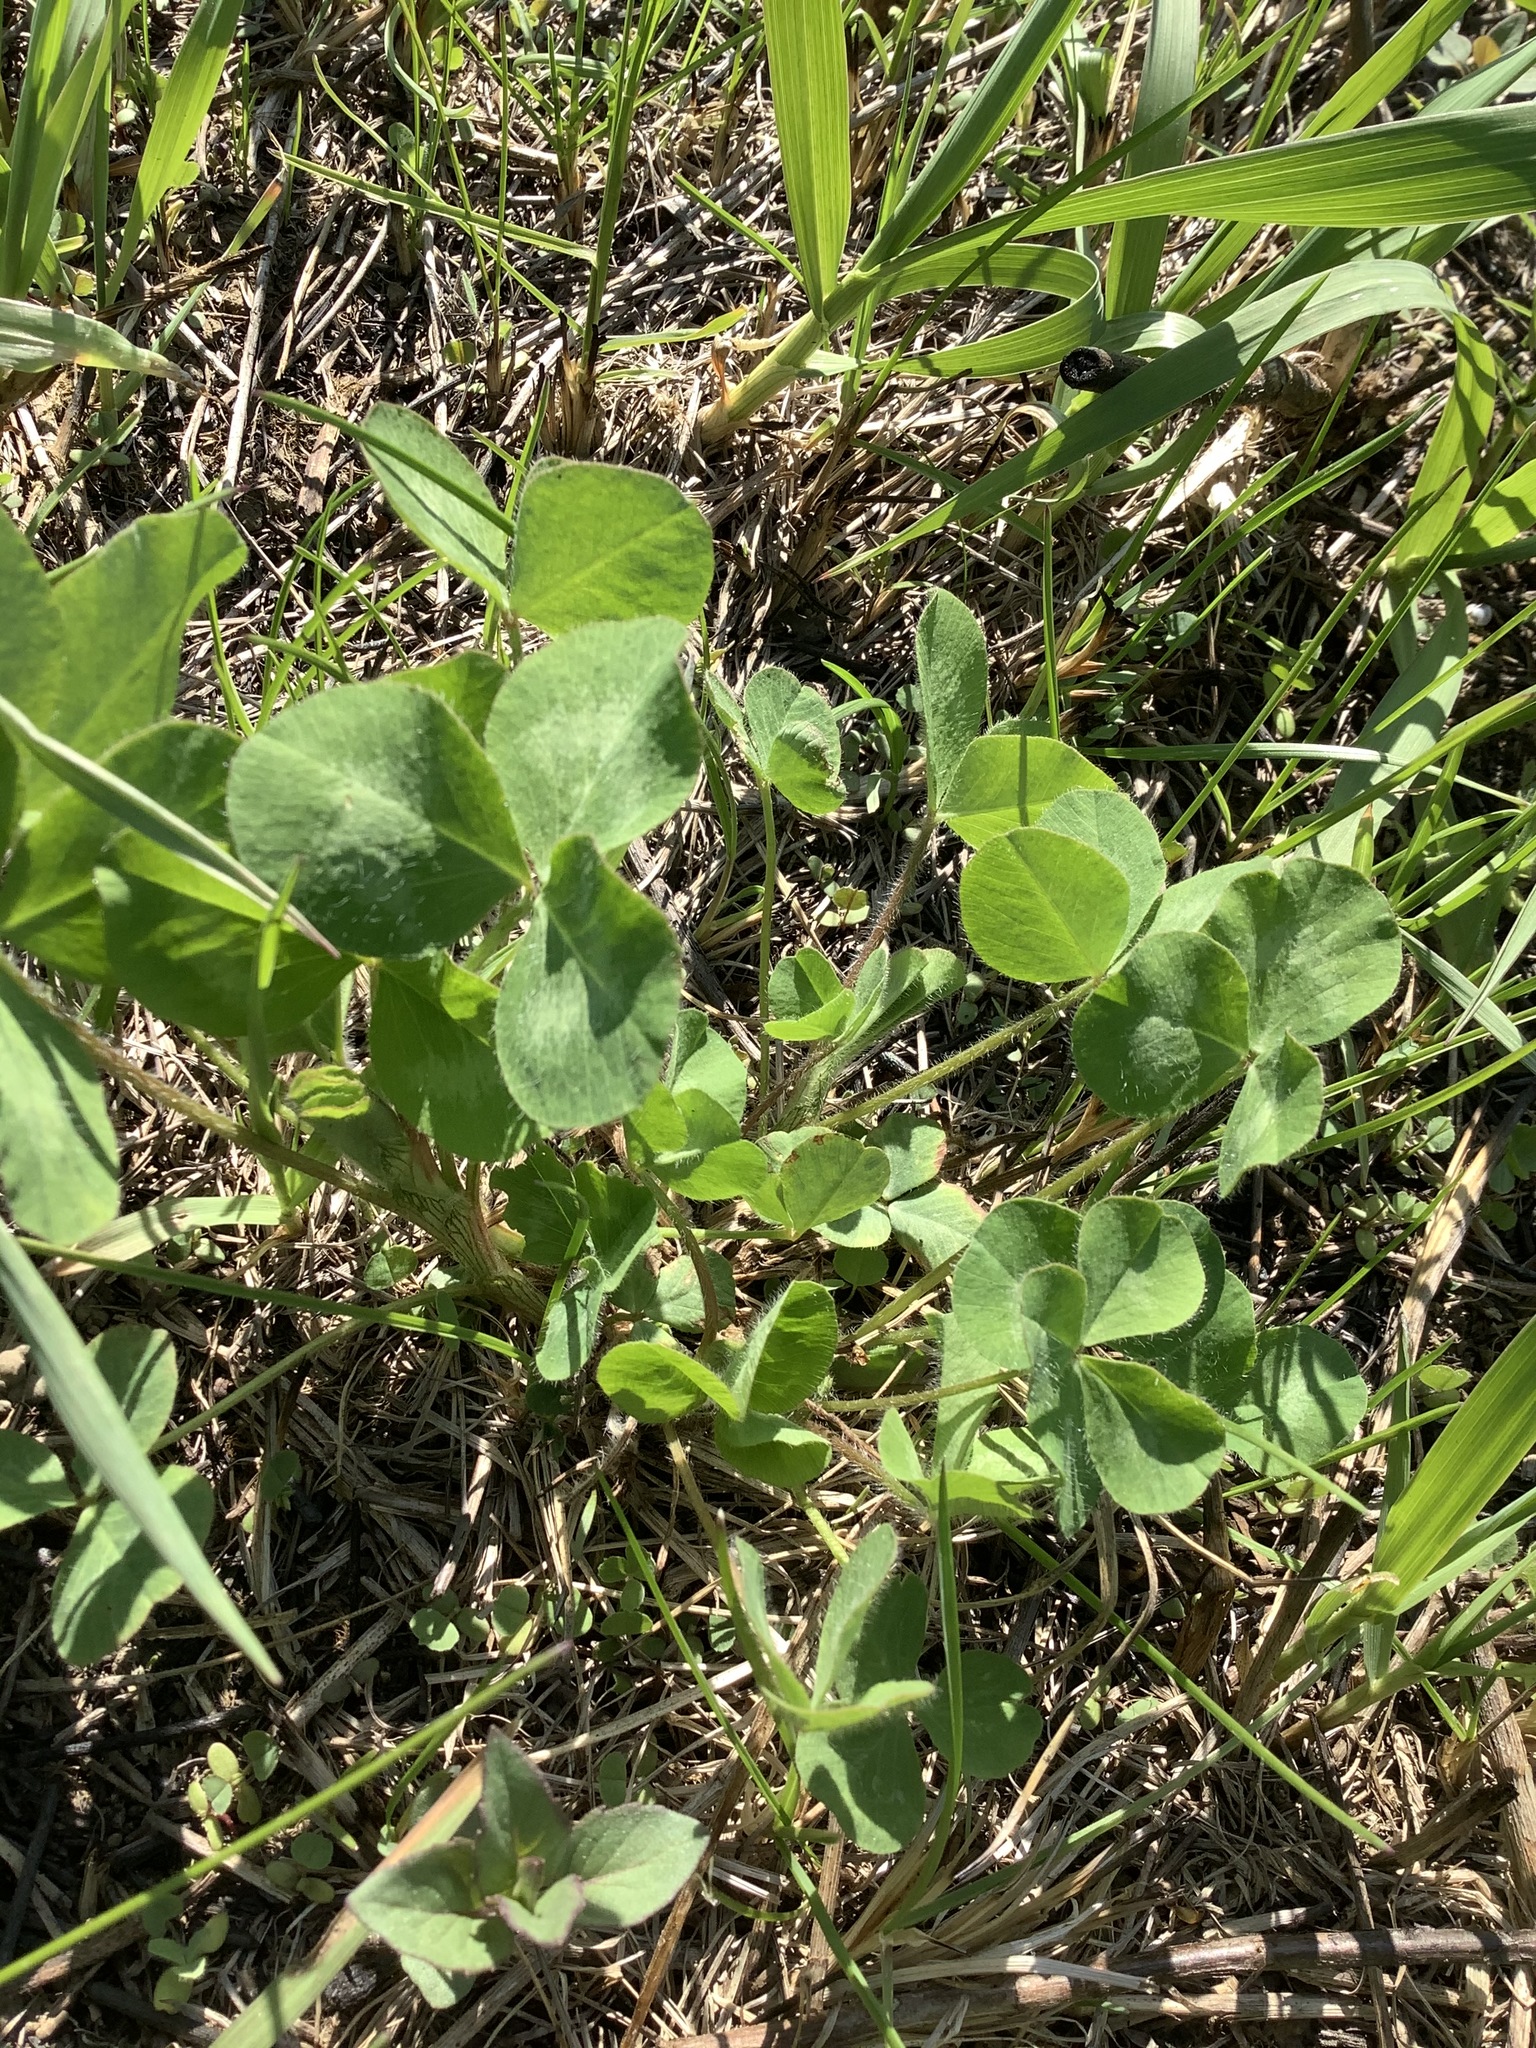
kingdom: Plantae
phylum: Tracheophyta
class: Magnoliopsida
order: Fabales
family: Fabaceae
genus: Trifolium
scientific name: Trifolium pratense
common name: Red clover
